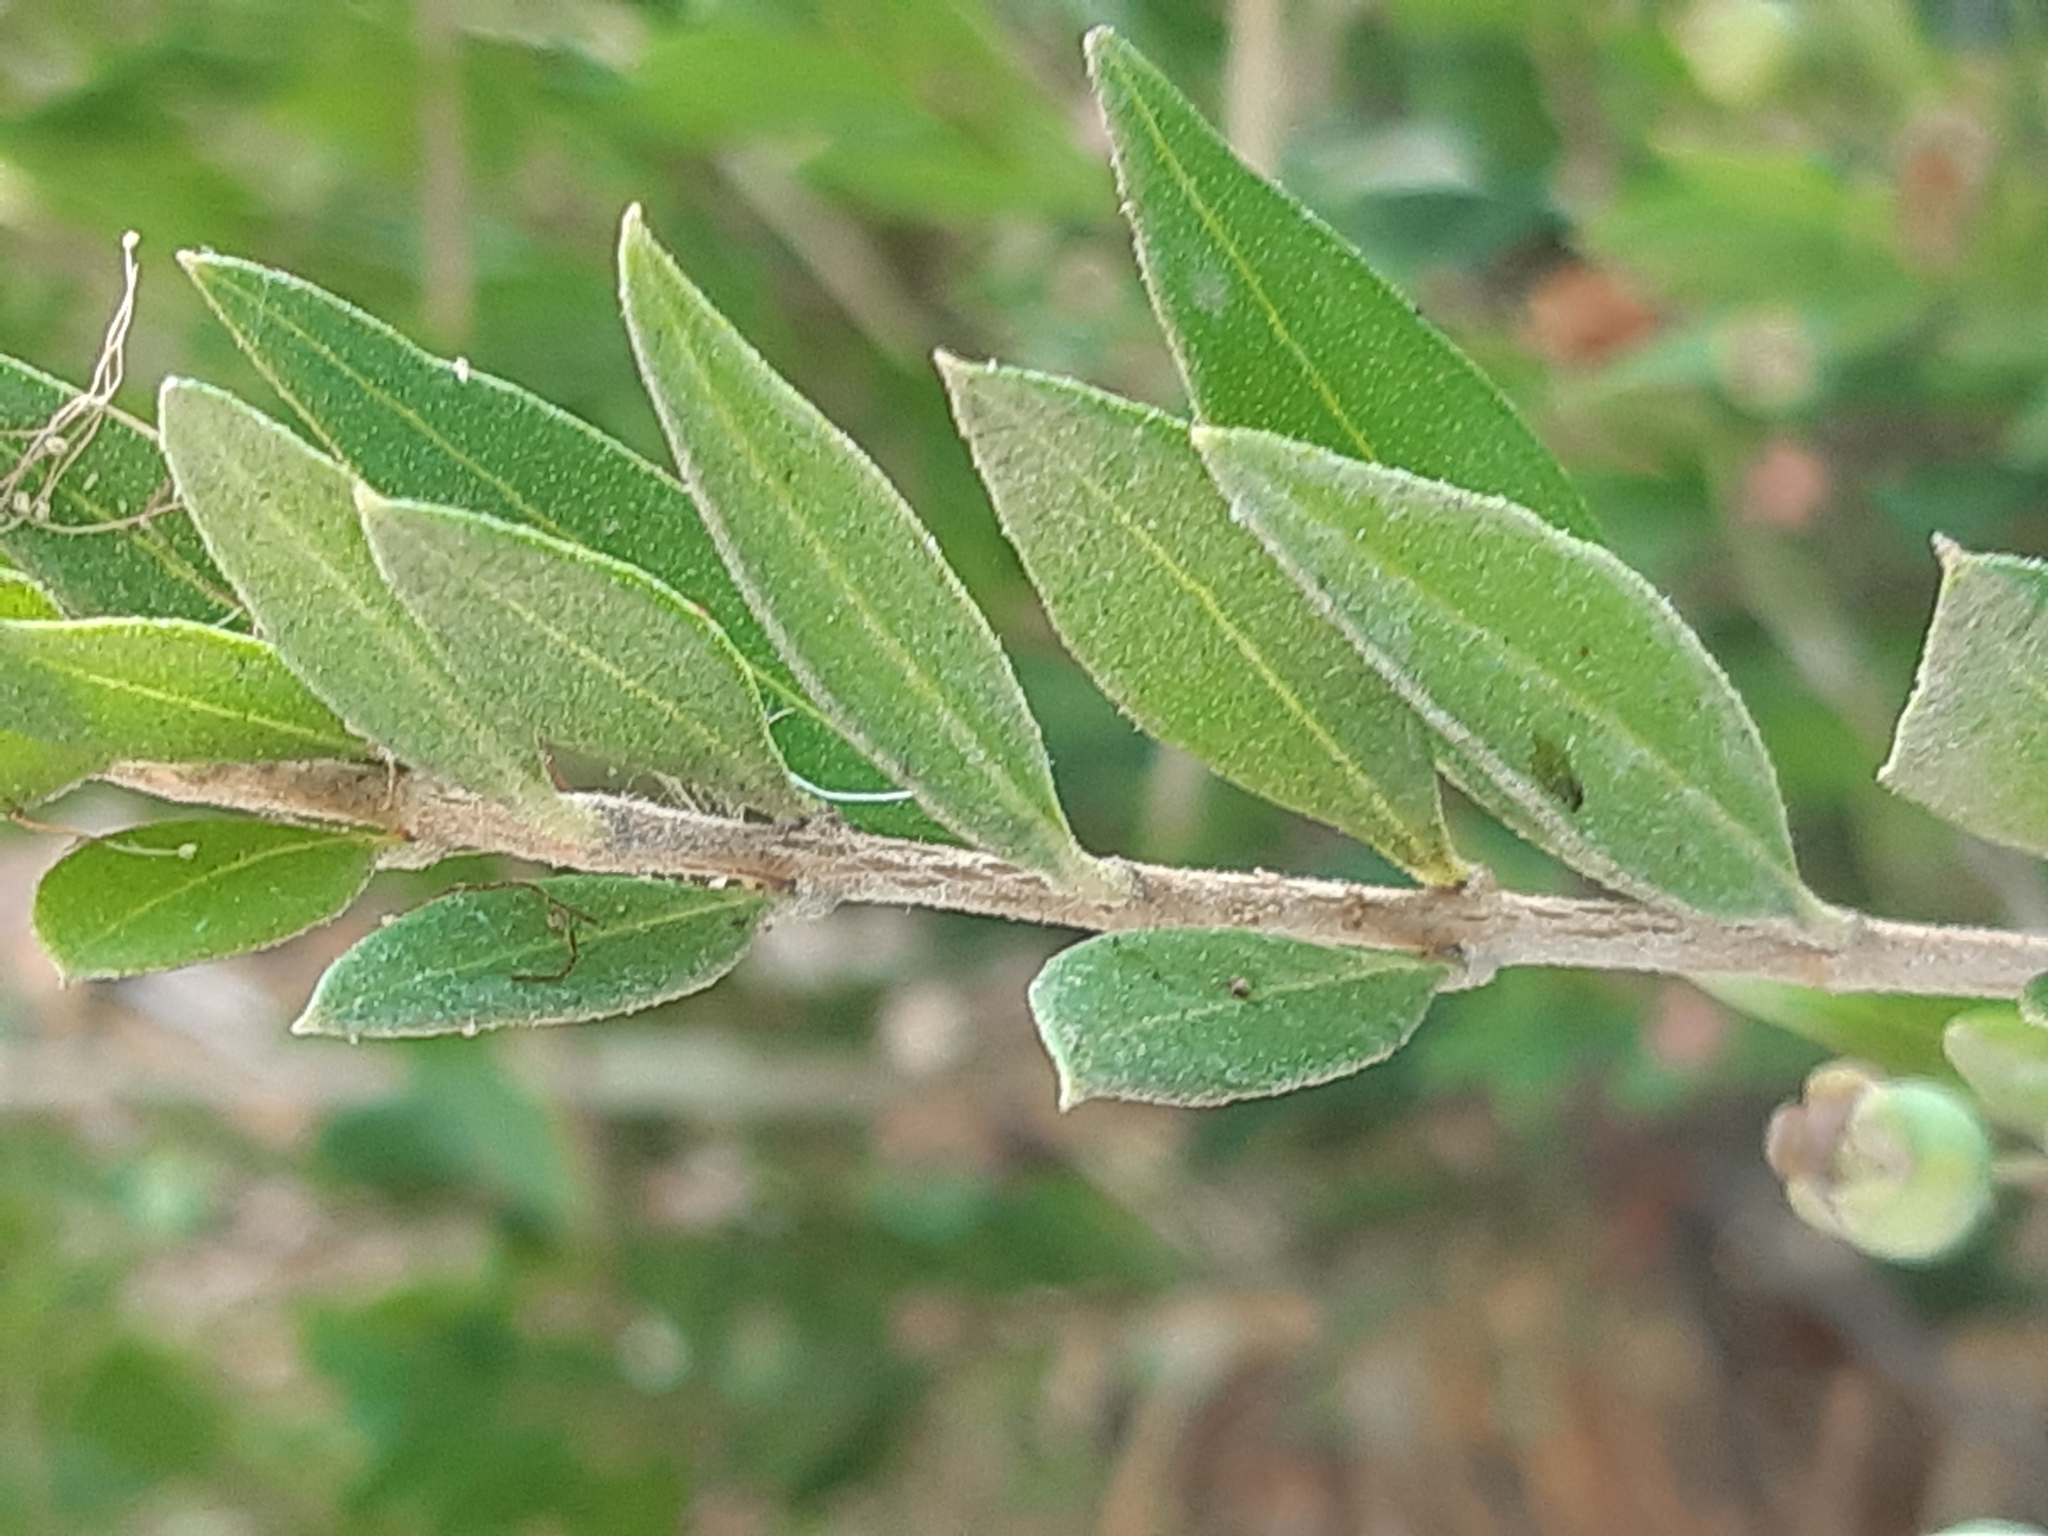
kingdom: Plantae
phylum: Tracheophyta
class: Magnoliopsida
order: Myrtales
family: Myrtaceae
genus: Myrtus
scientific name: Myrtus communis
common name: Myrtle
